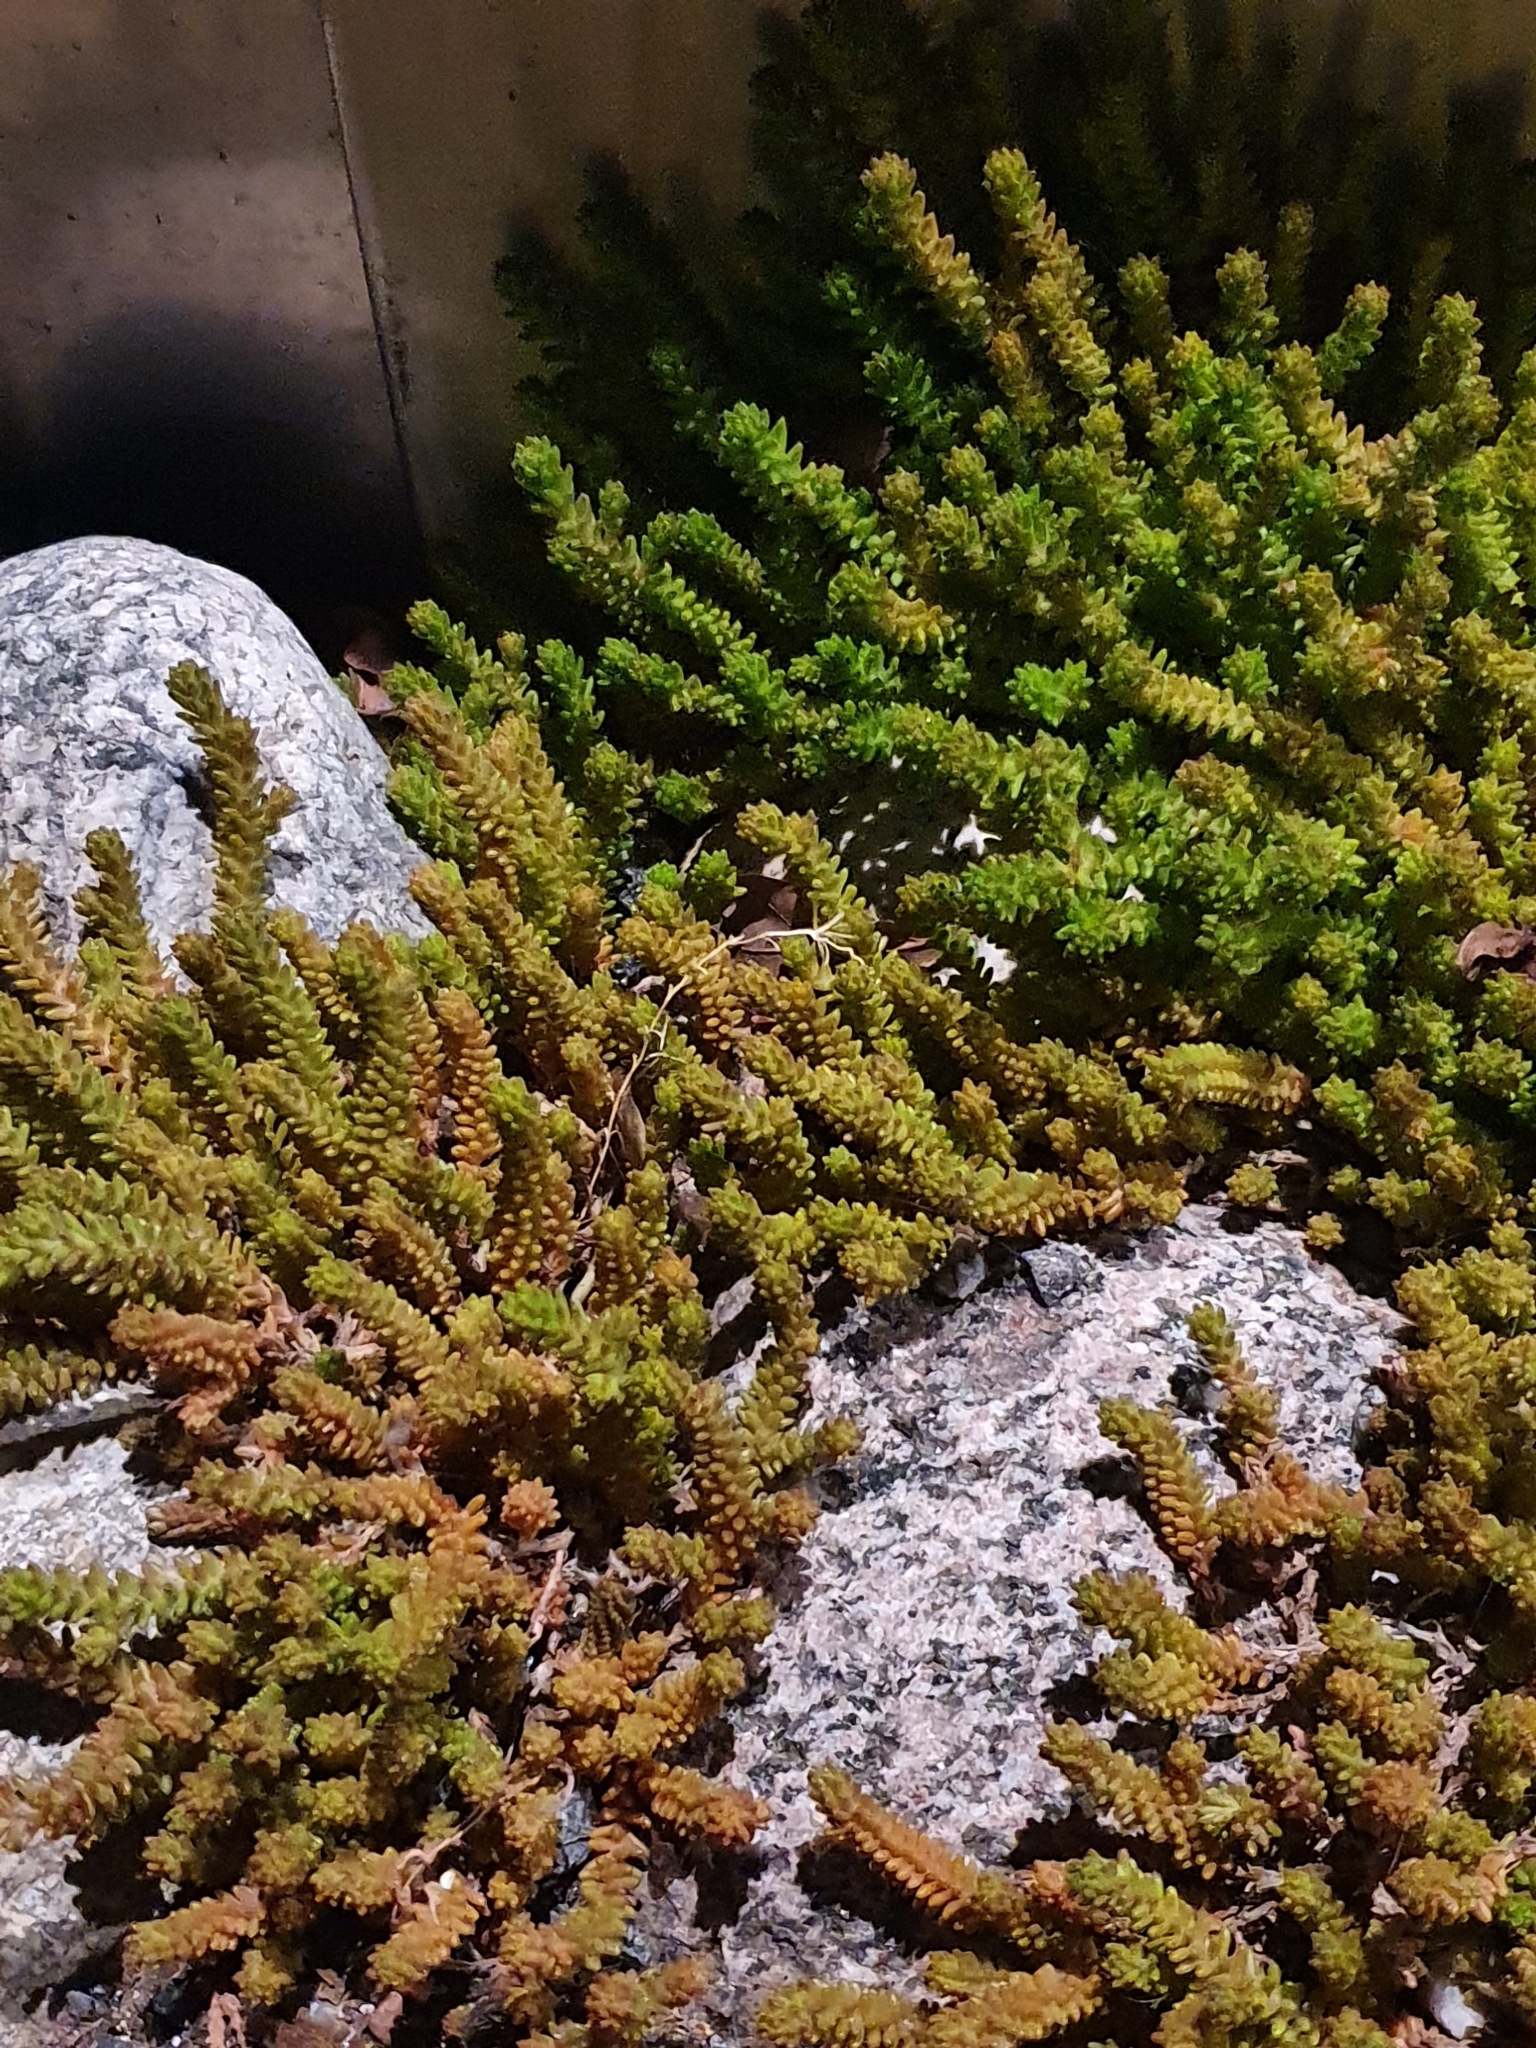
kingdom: Plantae
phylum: Tracheophyta
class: Magnoliopsida
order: Saxifragales
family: Crassulaceae
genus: Sedum
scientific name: Sedum sexangulare
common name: Tasteless stonecrop
